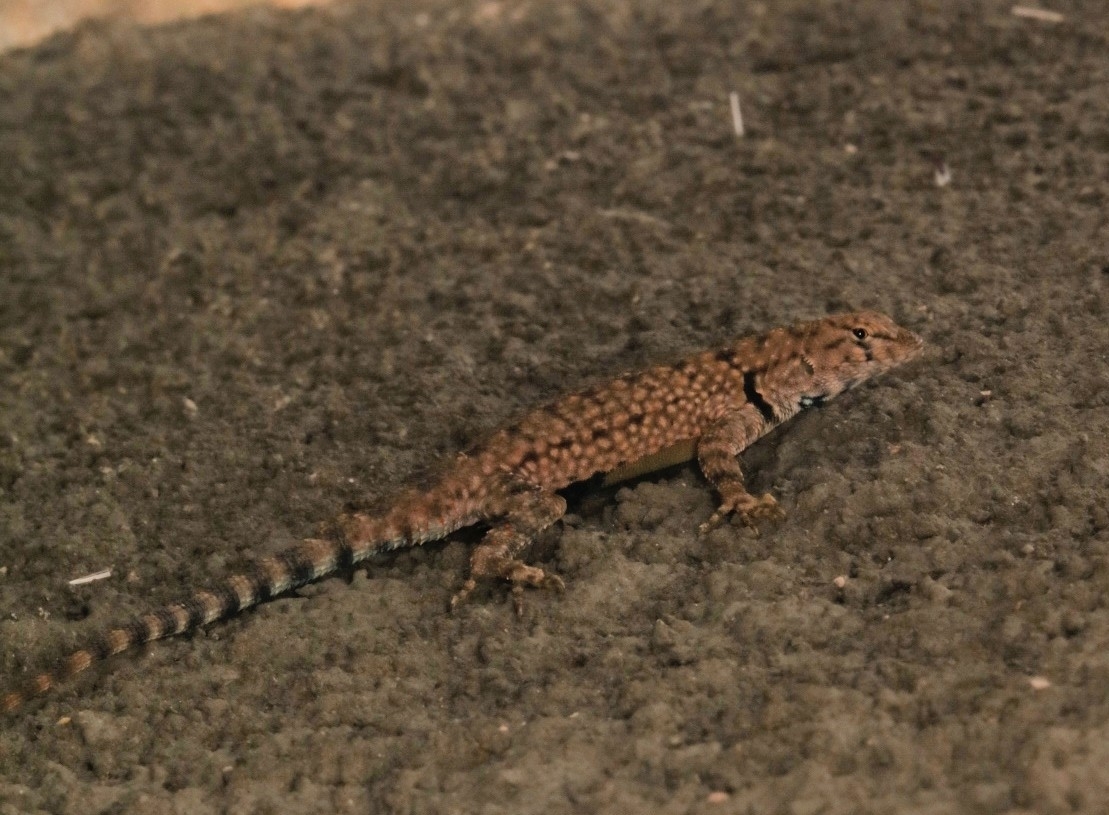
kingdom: Animalia
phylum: Chordata
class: Squamata
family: Phrynosomatidae
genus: Sceloporus
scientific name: Sceloporus merriami
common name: Canyon lizard
